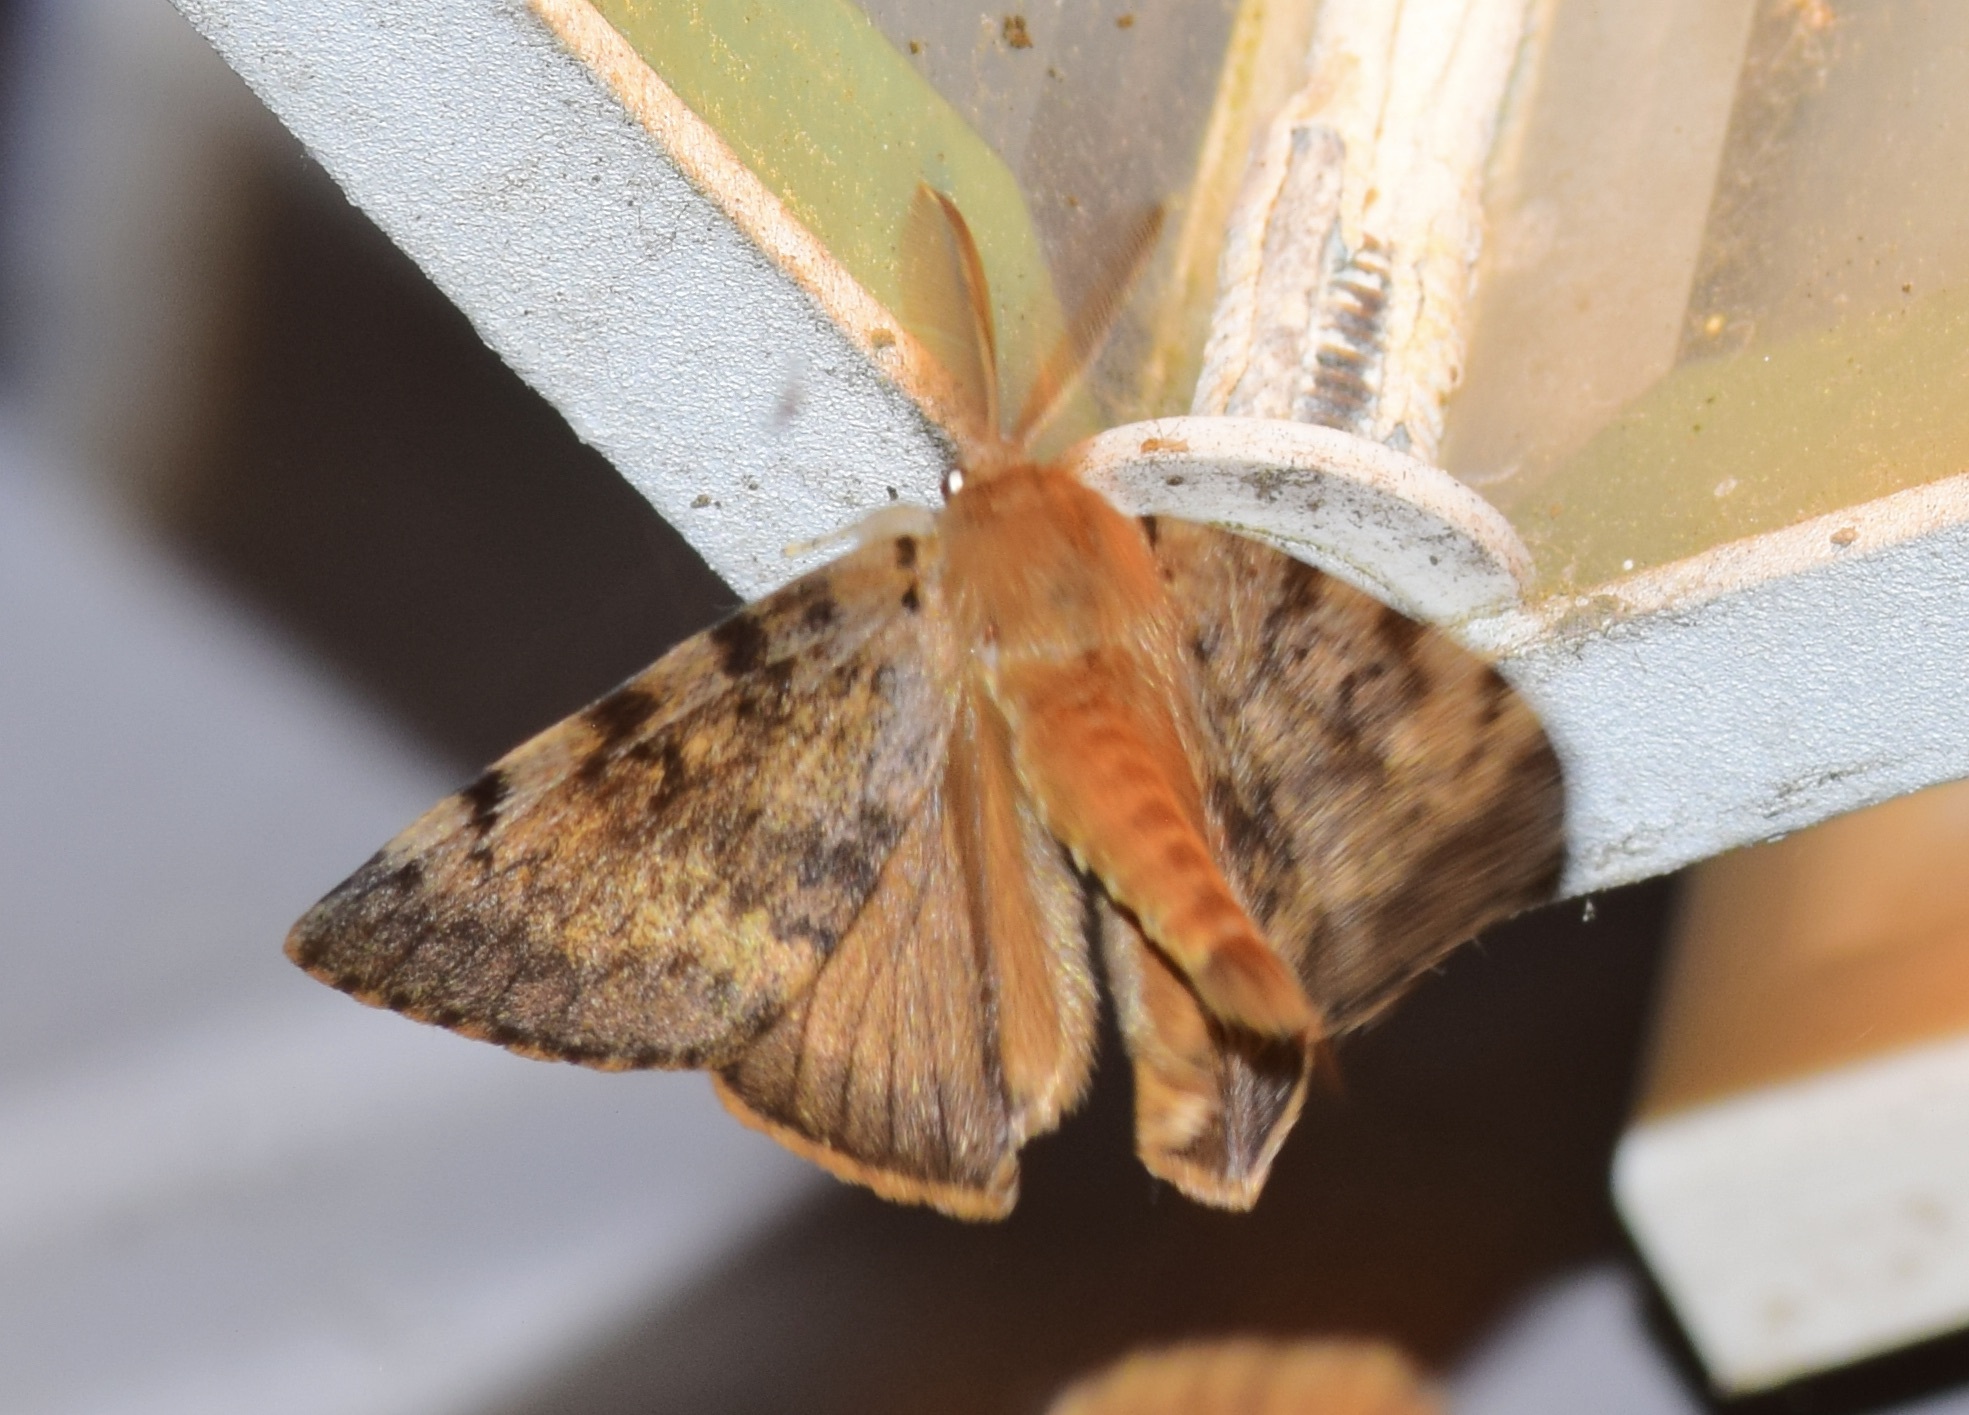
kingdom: Animalia
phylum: Arthropoda
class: Insecta
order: Lepidoptera
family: Erebidae
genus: Lymantria
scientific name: Lymantria dispar
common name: Gypsy moth
